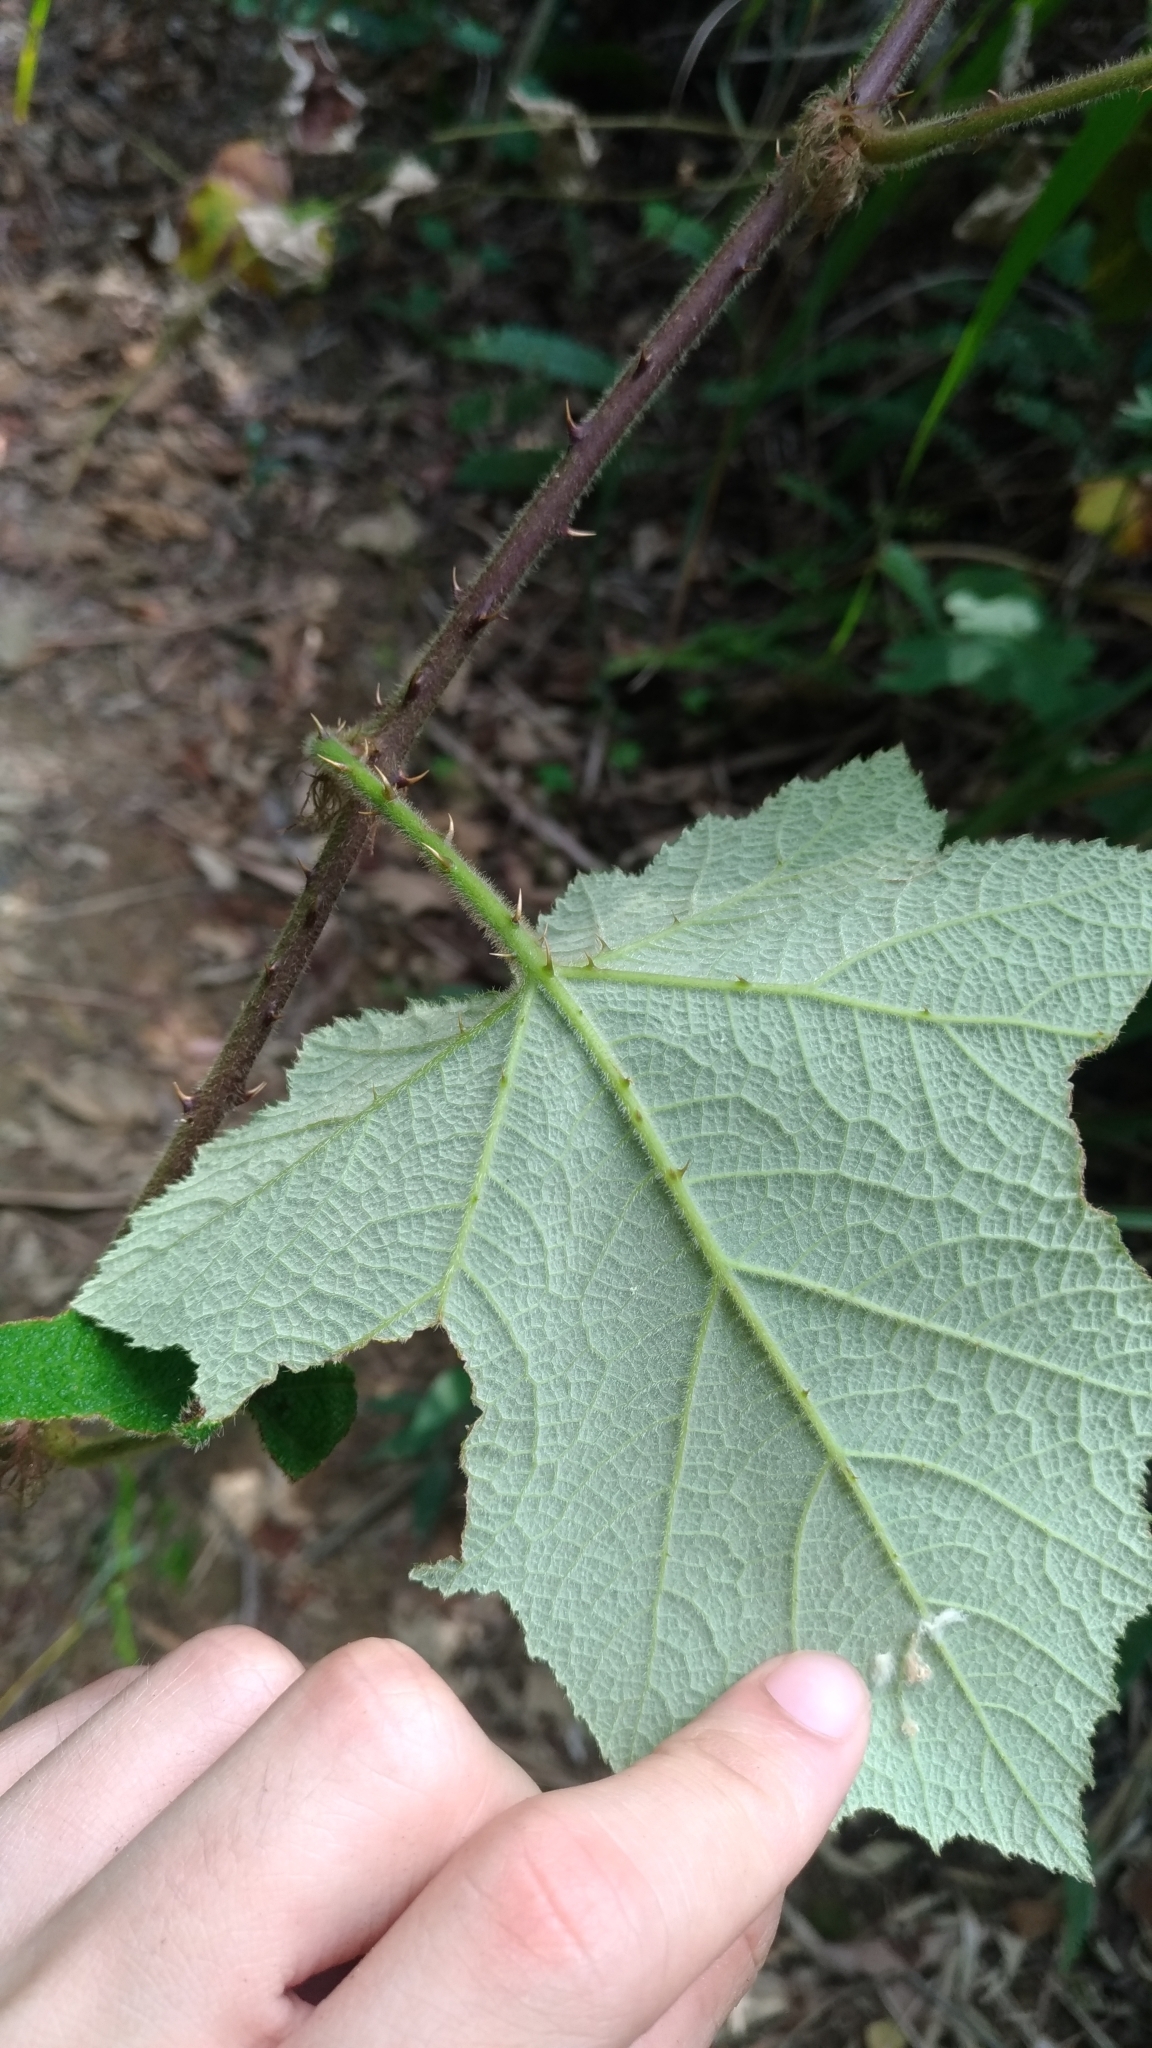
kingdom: Plantae
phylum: Tracheophyta
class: Magnoliopsida
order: Rosales
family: Rosaceae
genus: Rubus
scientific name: Rubus alceifolius
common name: Giant bramble
